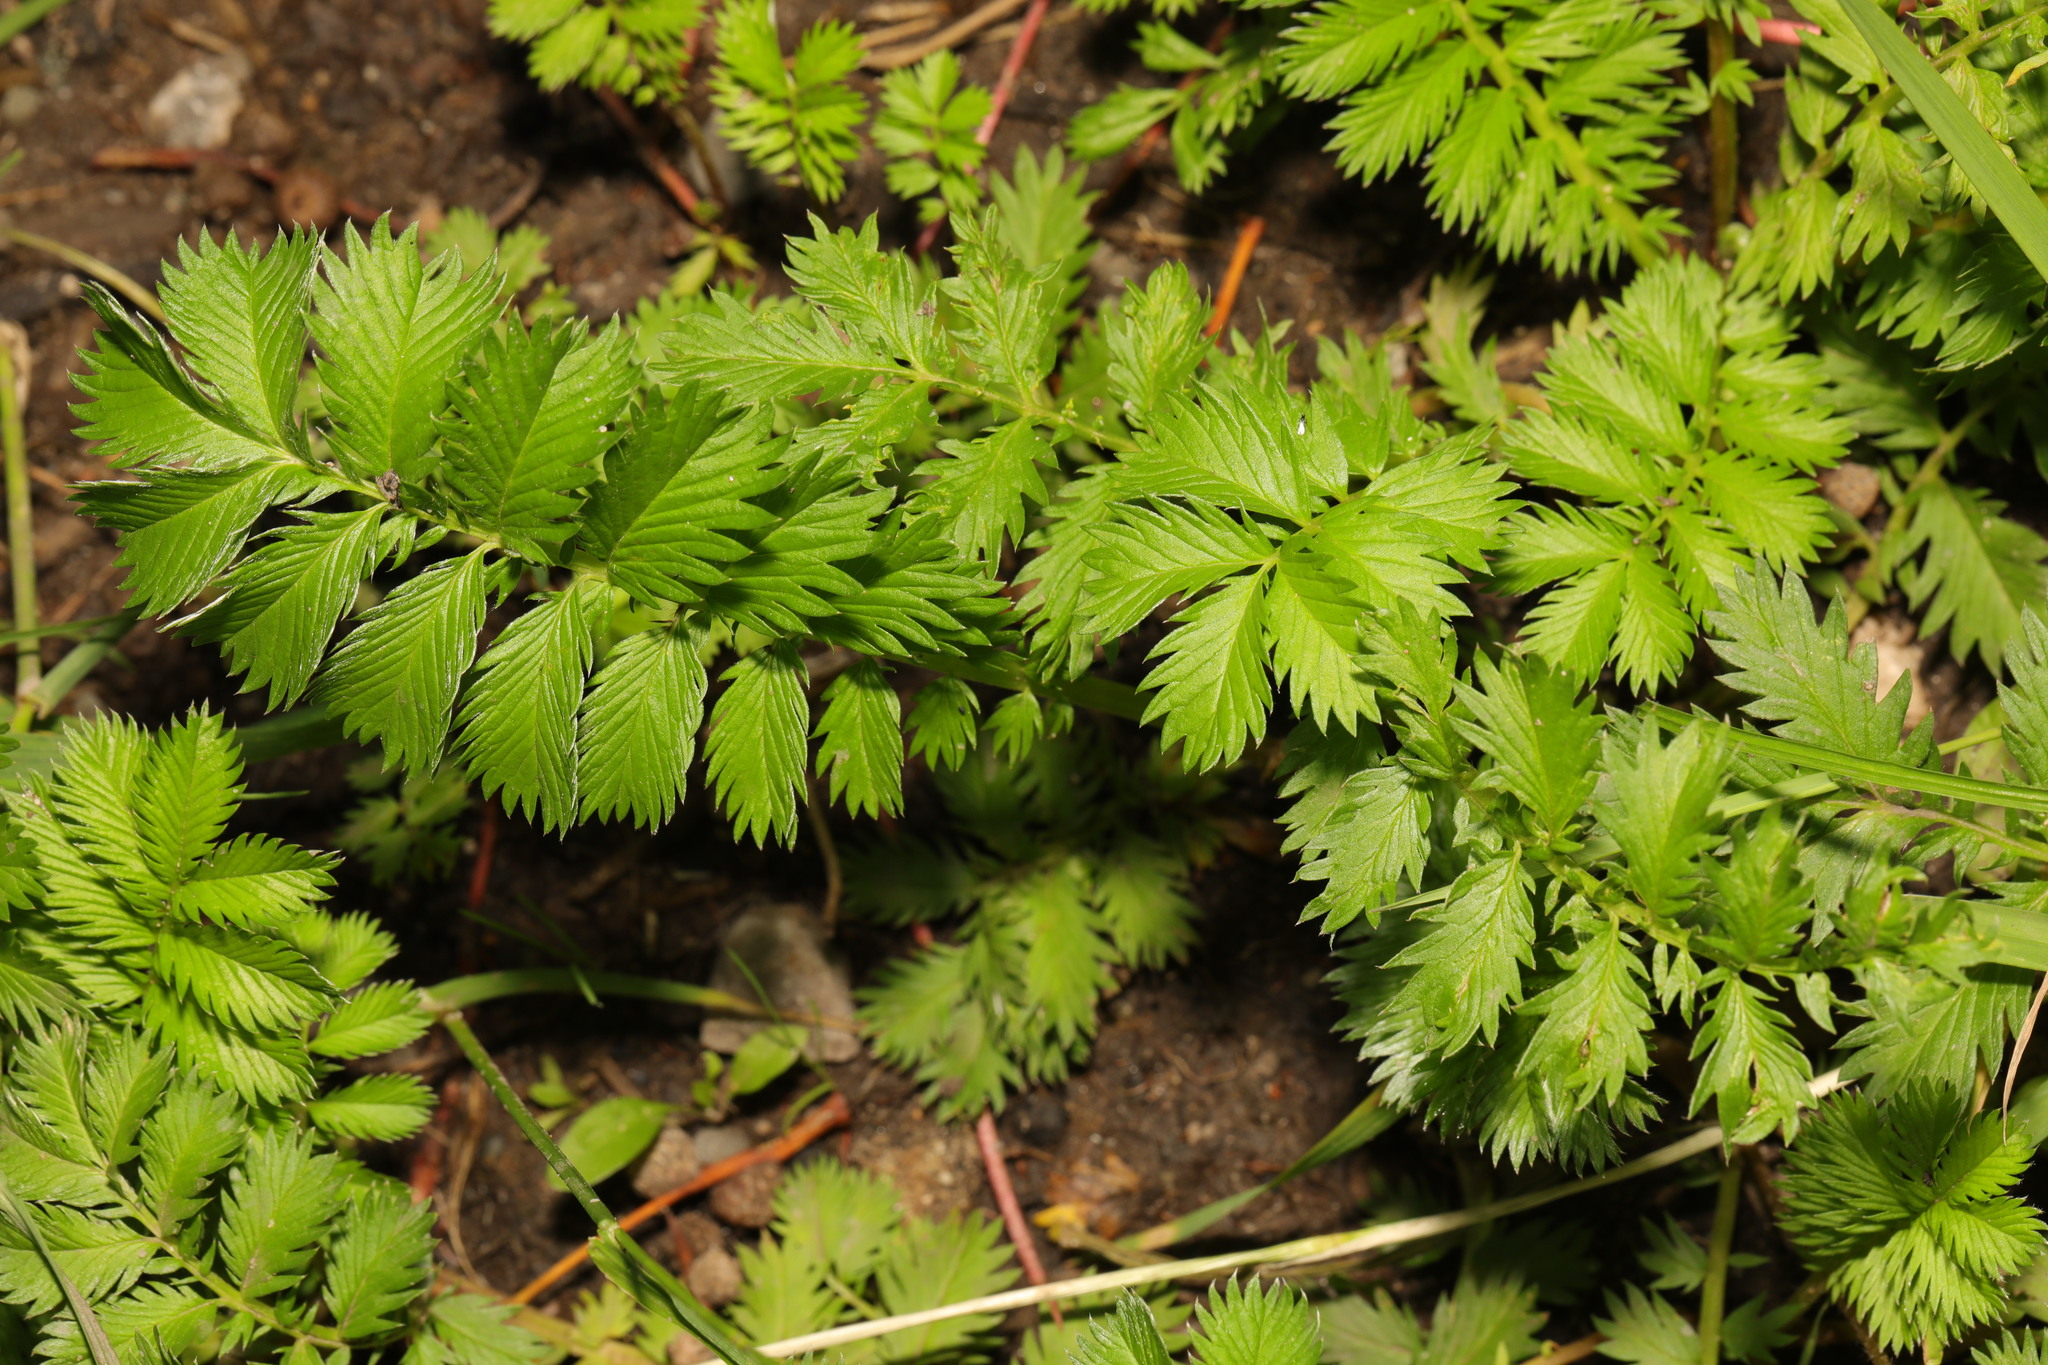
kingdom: Plantae
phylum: Tracheophyta
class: Magnoliopsida
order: Rosales
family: Rosaceae
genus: Argentina
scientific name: Argentina anserina
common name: Common silverweed
